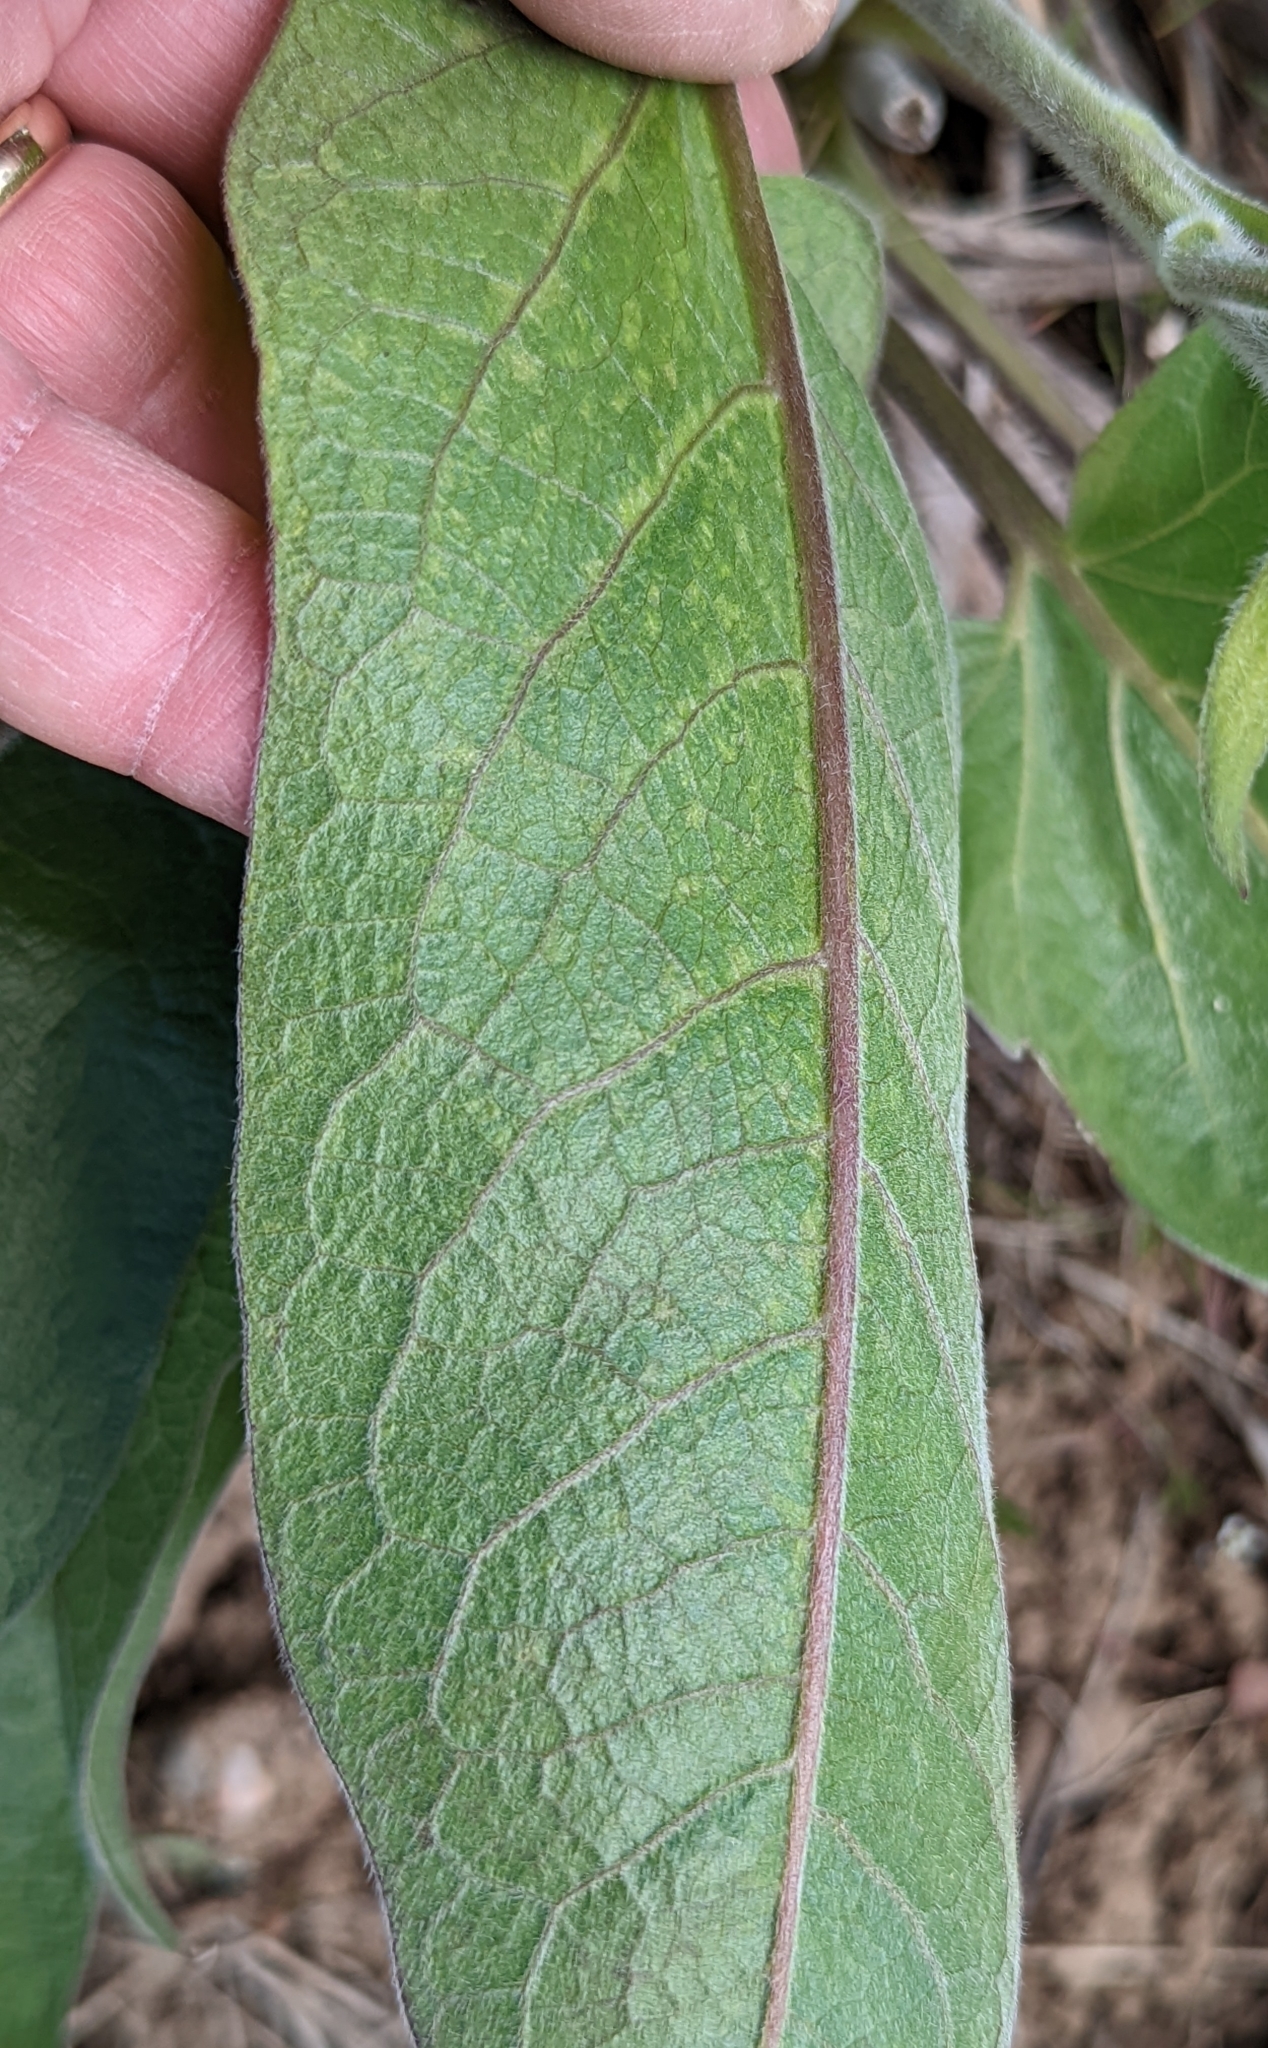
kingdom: Plantae
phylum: Tracheophyta
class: Magnoliopsida
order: Asterales
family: Asteraceae
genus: Balsamorhiza
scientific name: Balsamorhiza careyana
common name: Carey's balsamroot
